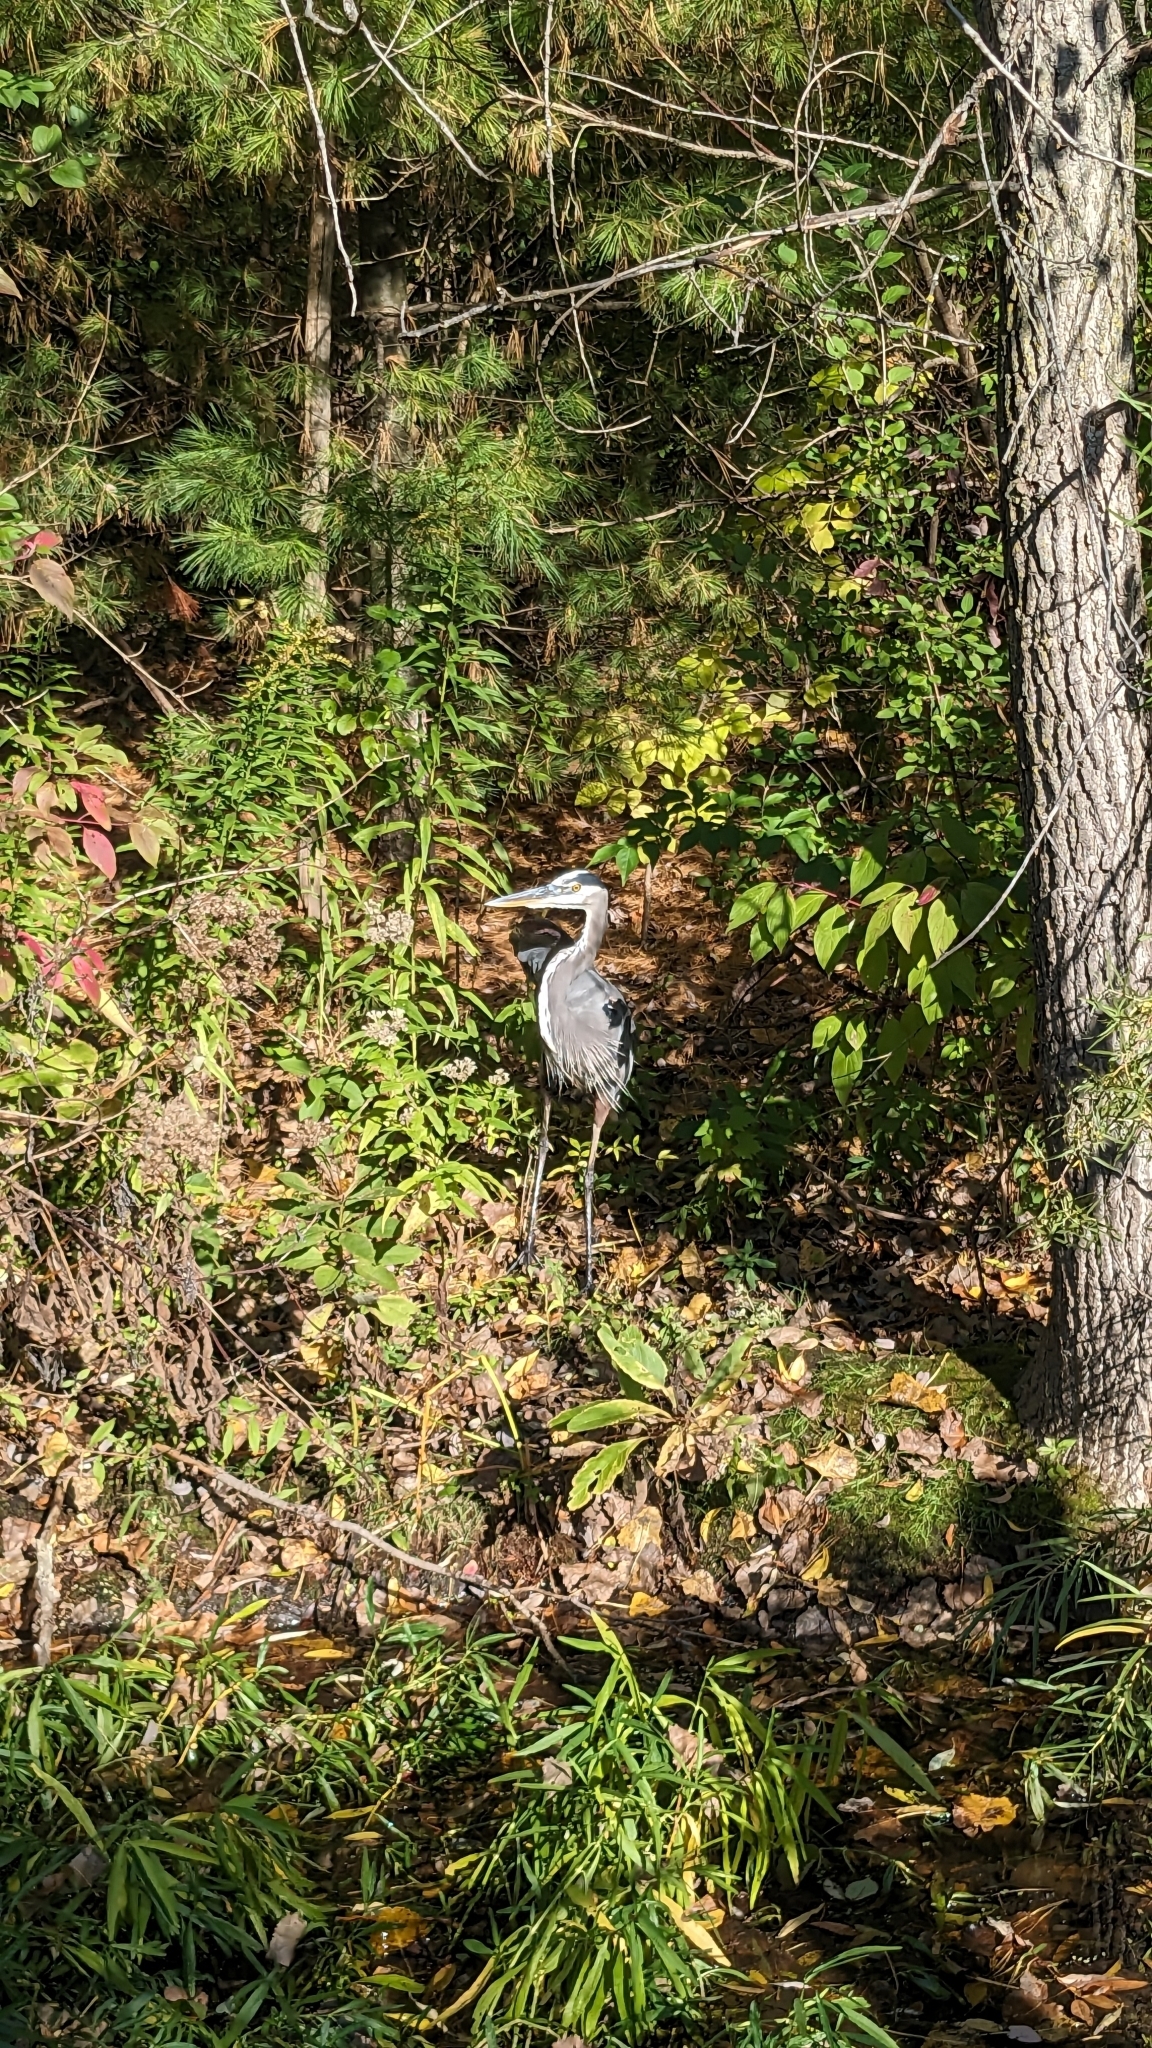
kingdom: Animalia
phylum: Chordata
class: Aves
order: Pelecaniformes
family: Ardeidae
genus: Ardea
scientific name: Ardea herodias
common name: Great blue heron
